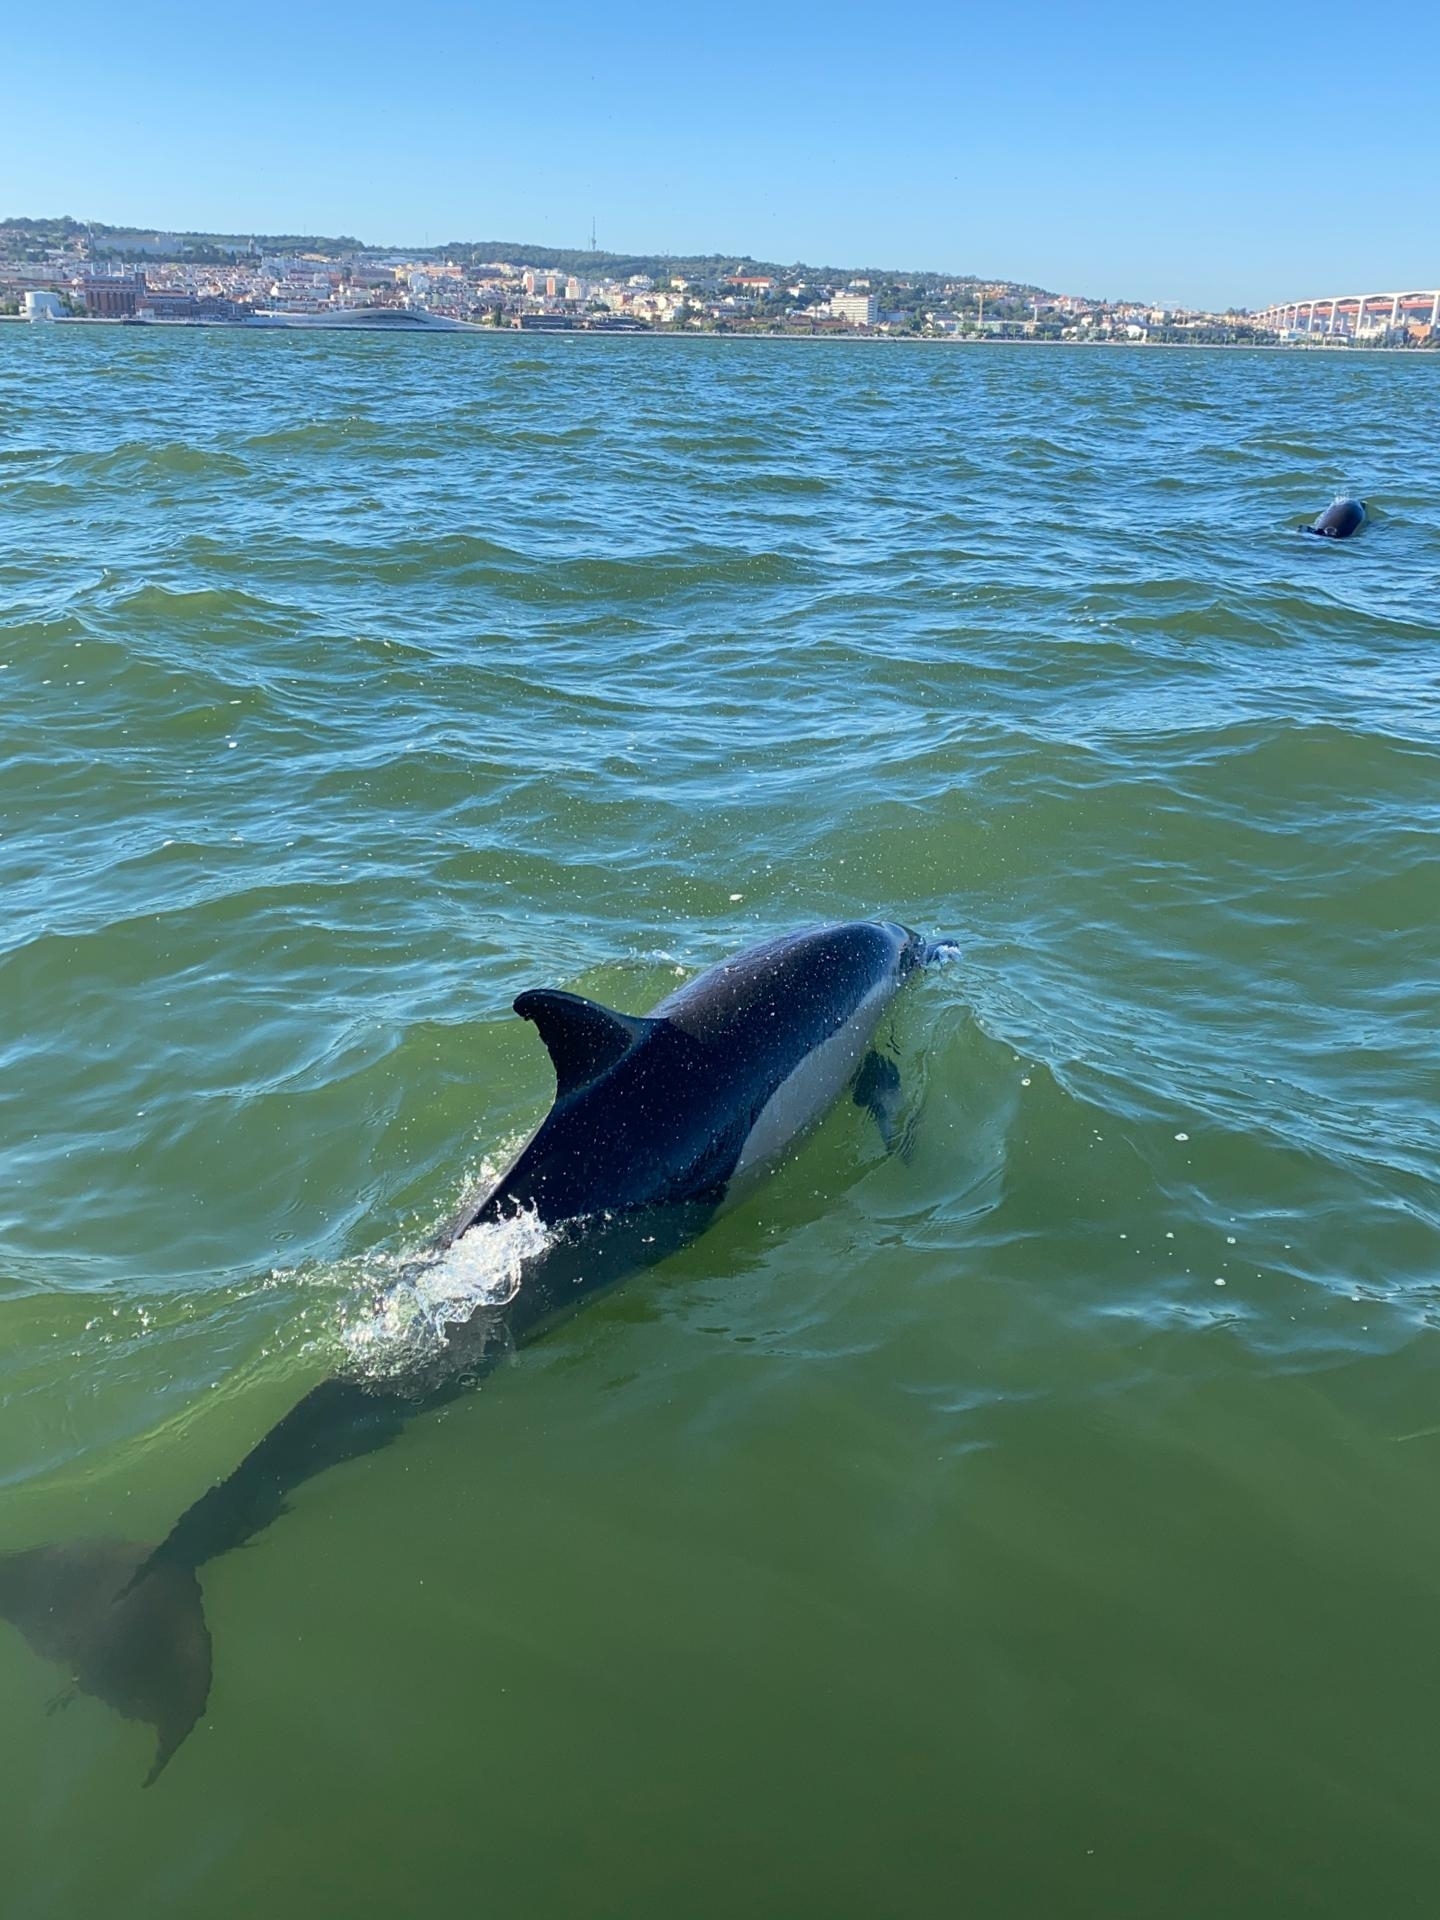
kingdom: Animalia
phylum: Chordata
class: Mammalia
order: Cetacea
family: Delphinidae
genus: Delphinus
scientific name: Delphinus delphis
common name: Common dolphin
